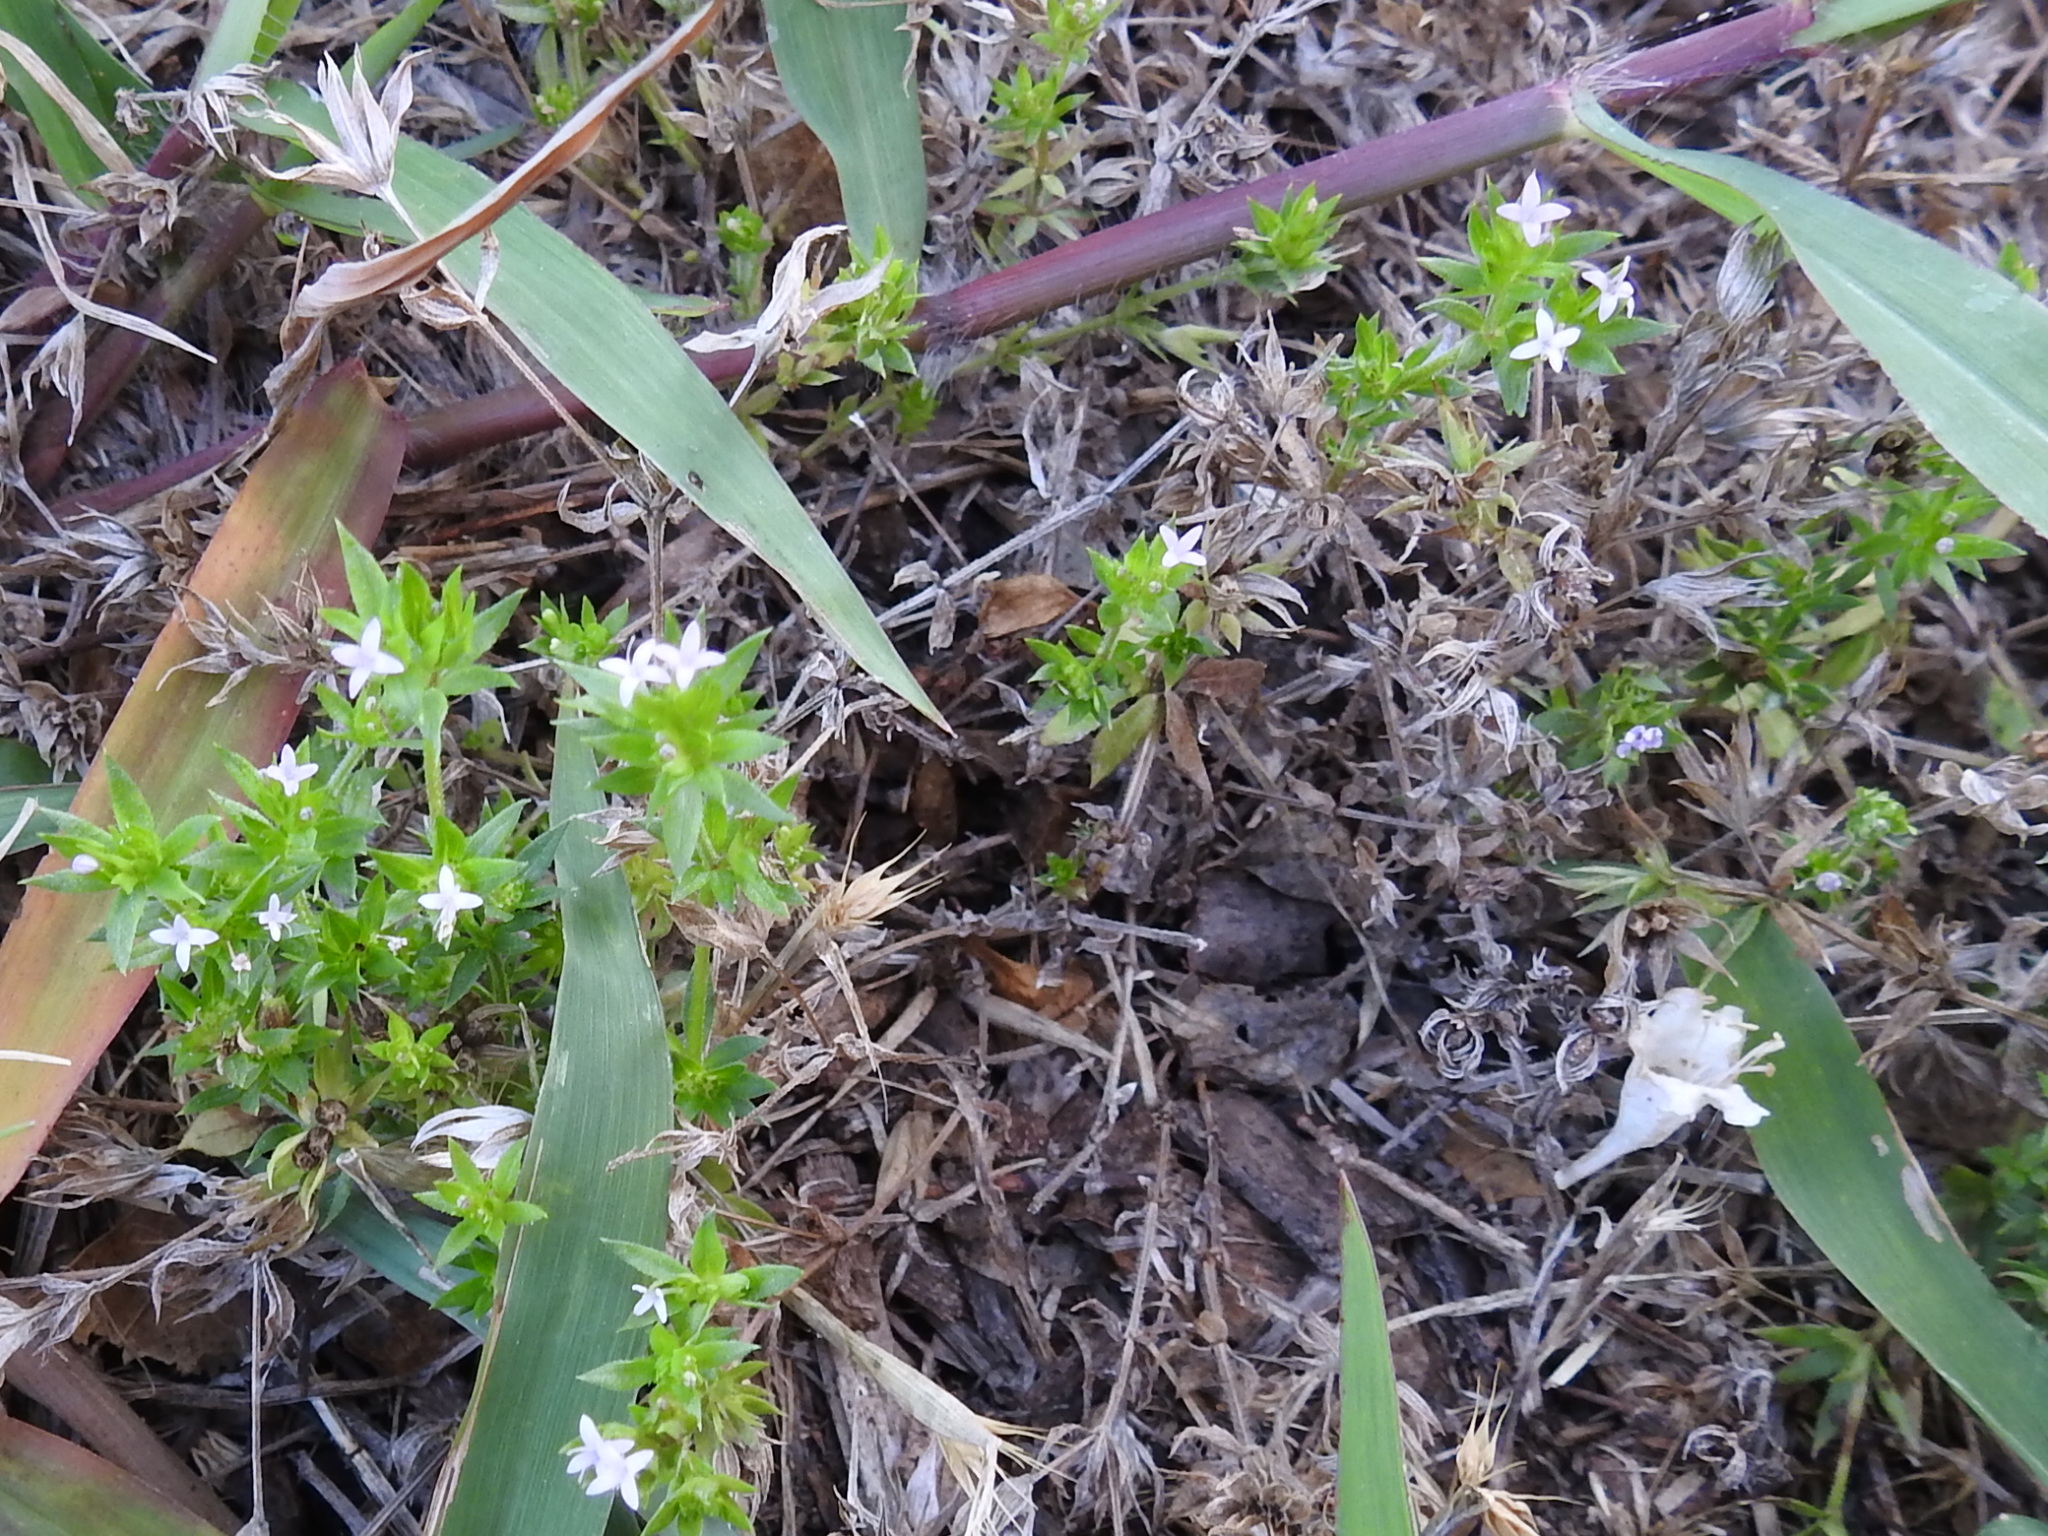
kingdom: Plantae
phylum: Tracheophyta
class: Magnoliopsida
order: Gentianales
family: Rubiaceae
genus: Sherardia
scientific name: Sherardia arvensis
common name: Field madder
